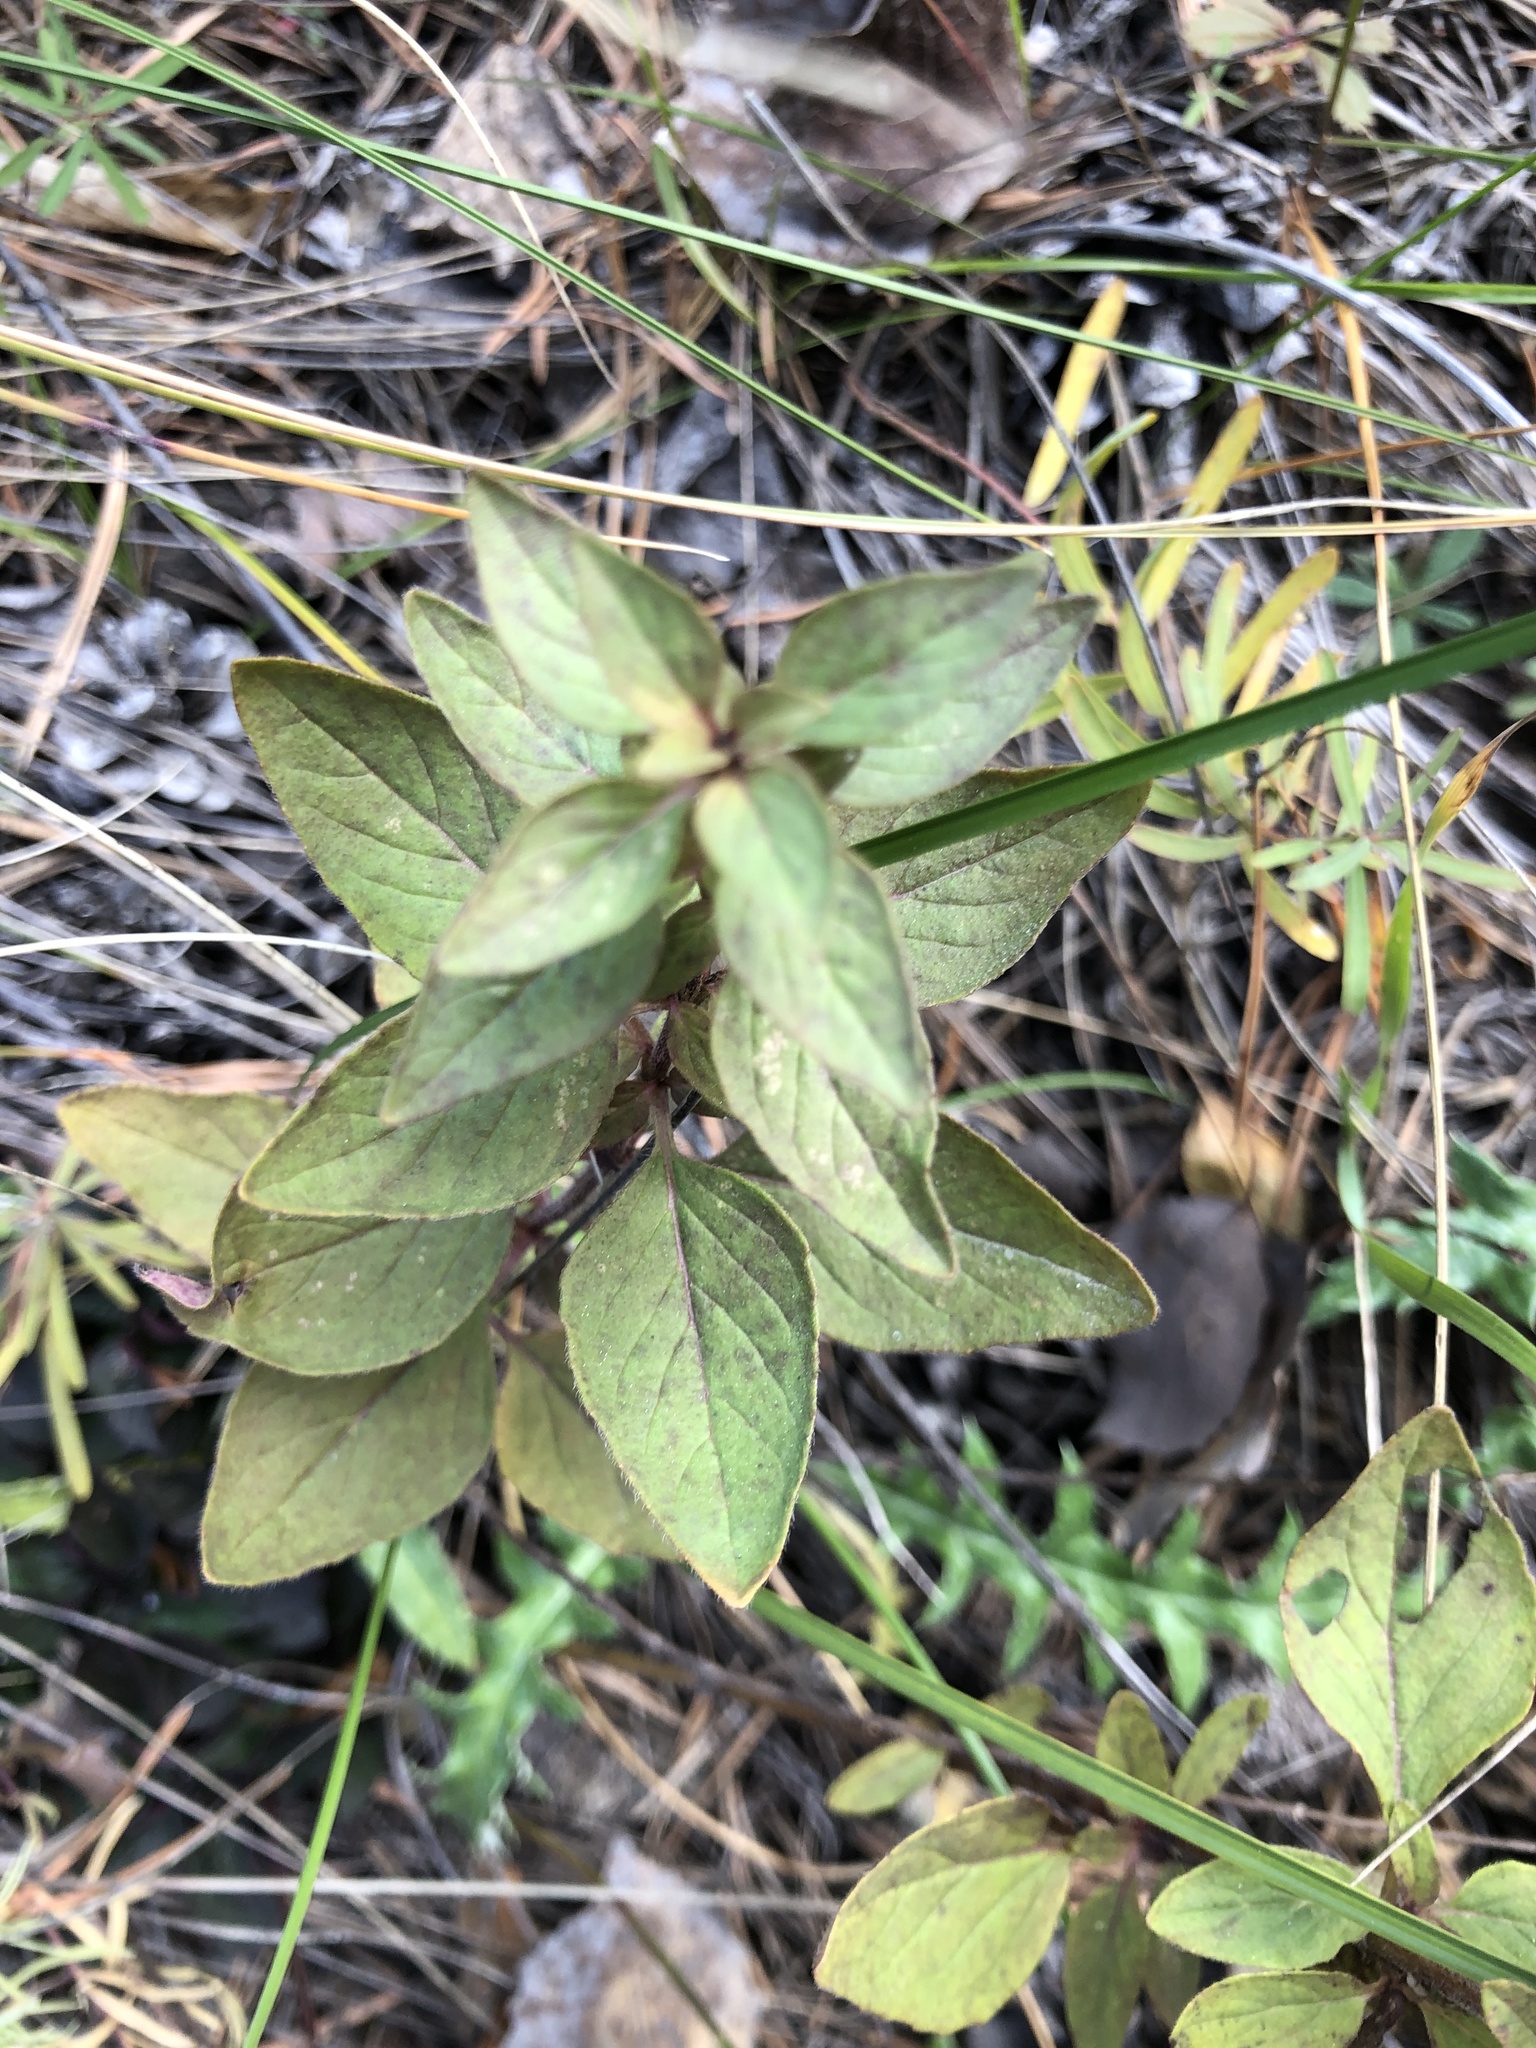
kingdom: Plantae
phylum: Tracheophyta
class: Magnoliopsida
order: Lamiales
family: Lamiaceae
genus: Origanum
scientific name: Origanum vulgare
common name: Wild marjoram
